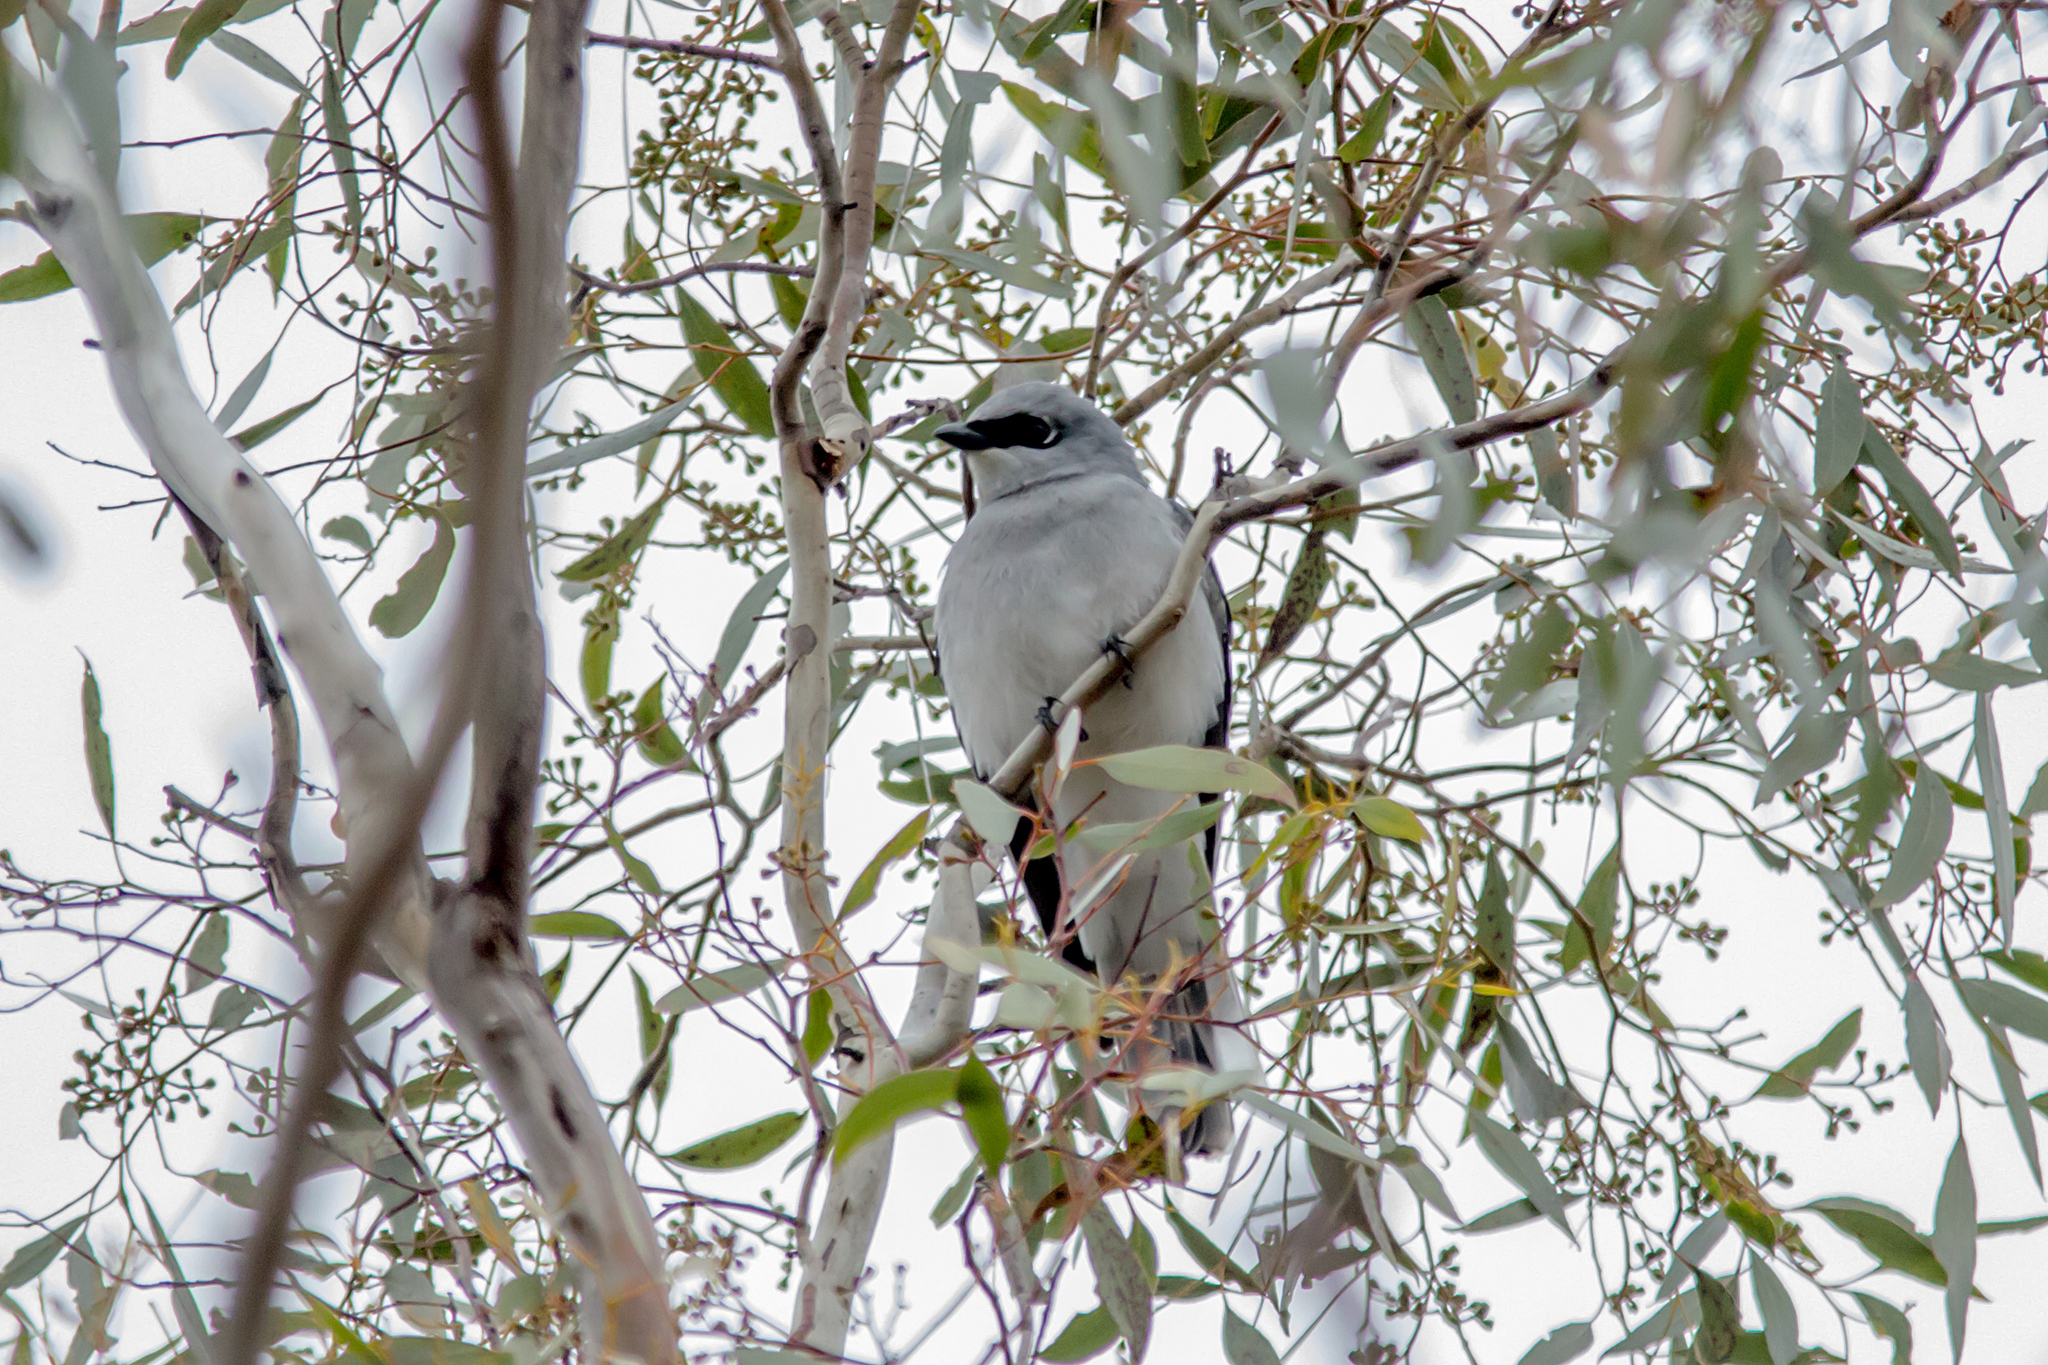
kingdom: Animalia
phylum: Chordata
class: Aves
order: Passeriformes
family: Campephagidae
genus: Coracina
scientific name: Coracina papuensis
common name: White-bellied cuckooshrike
